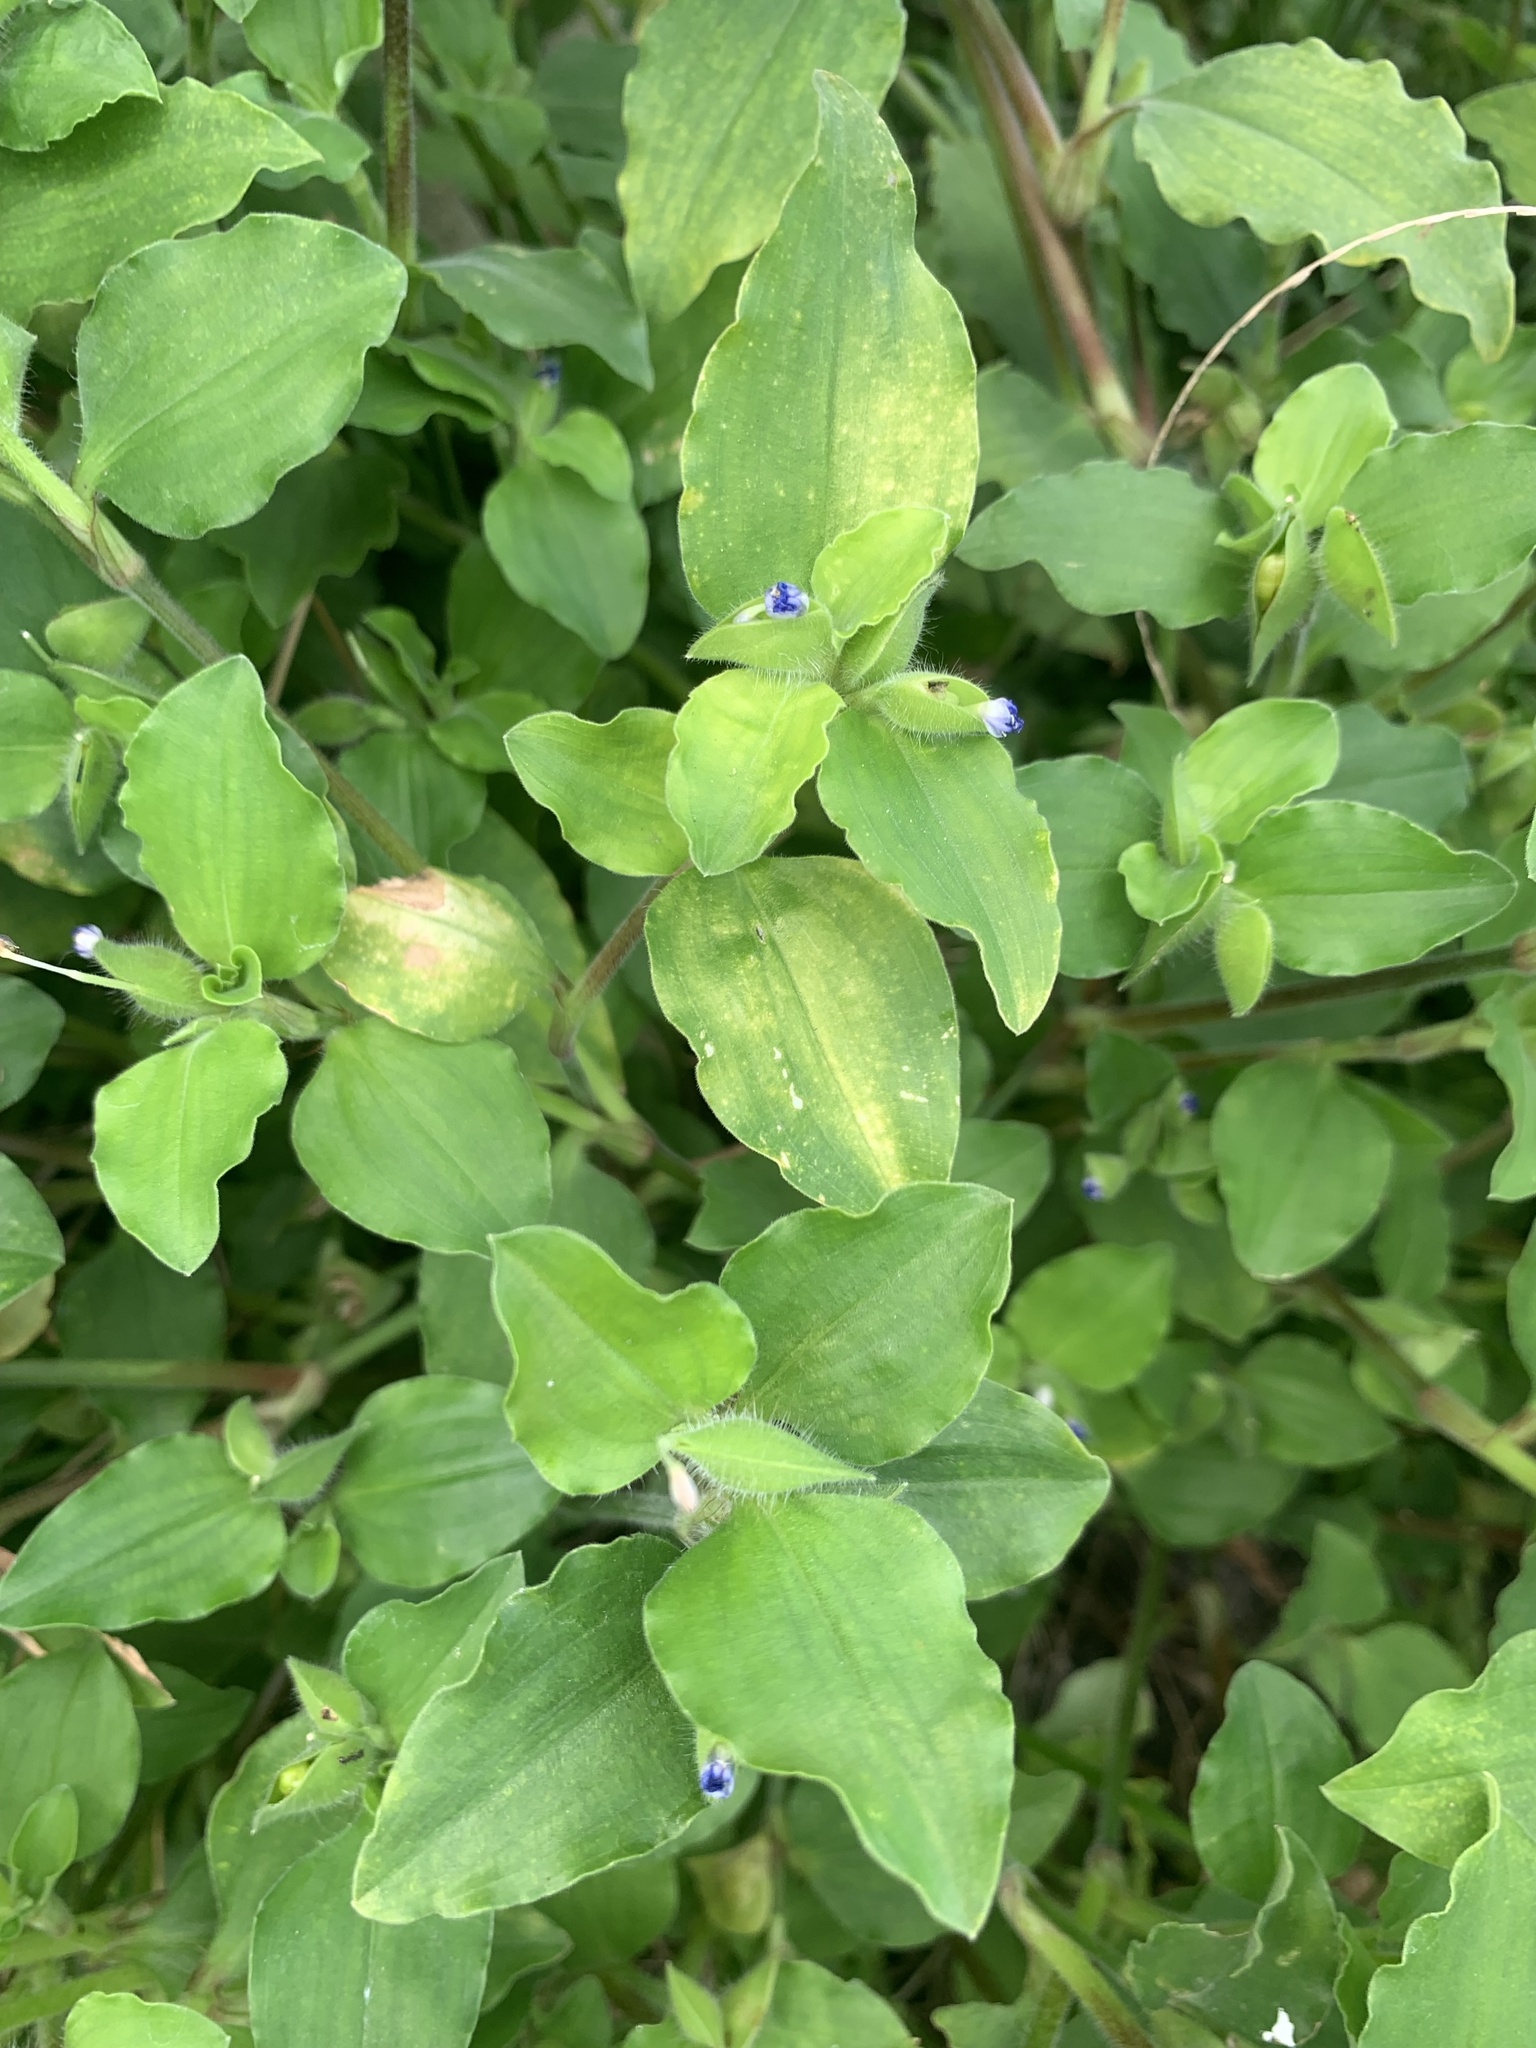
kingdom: Plantae
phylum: Tracheophyta
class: Liliopsida
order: Commelinales
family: Commelinaceae
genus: Commelina
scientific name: Commelina benghalensis
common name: Jio
